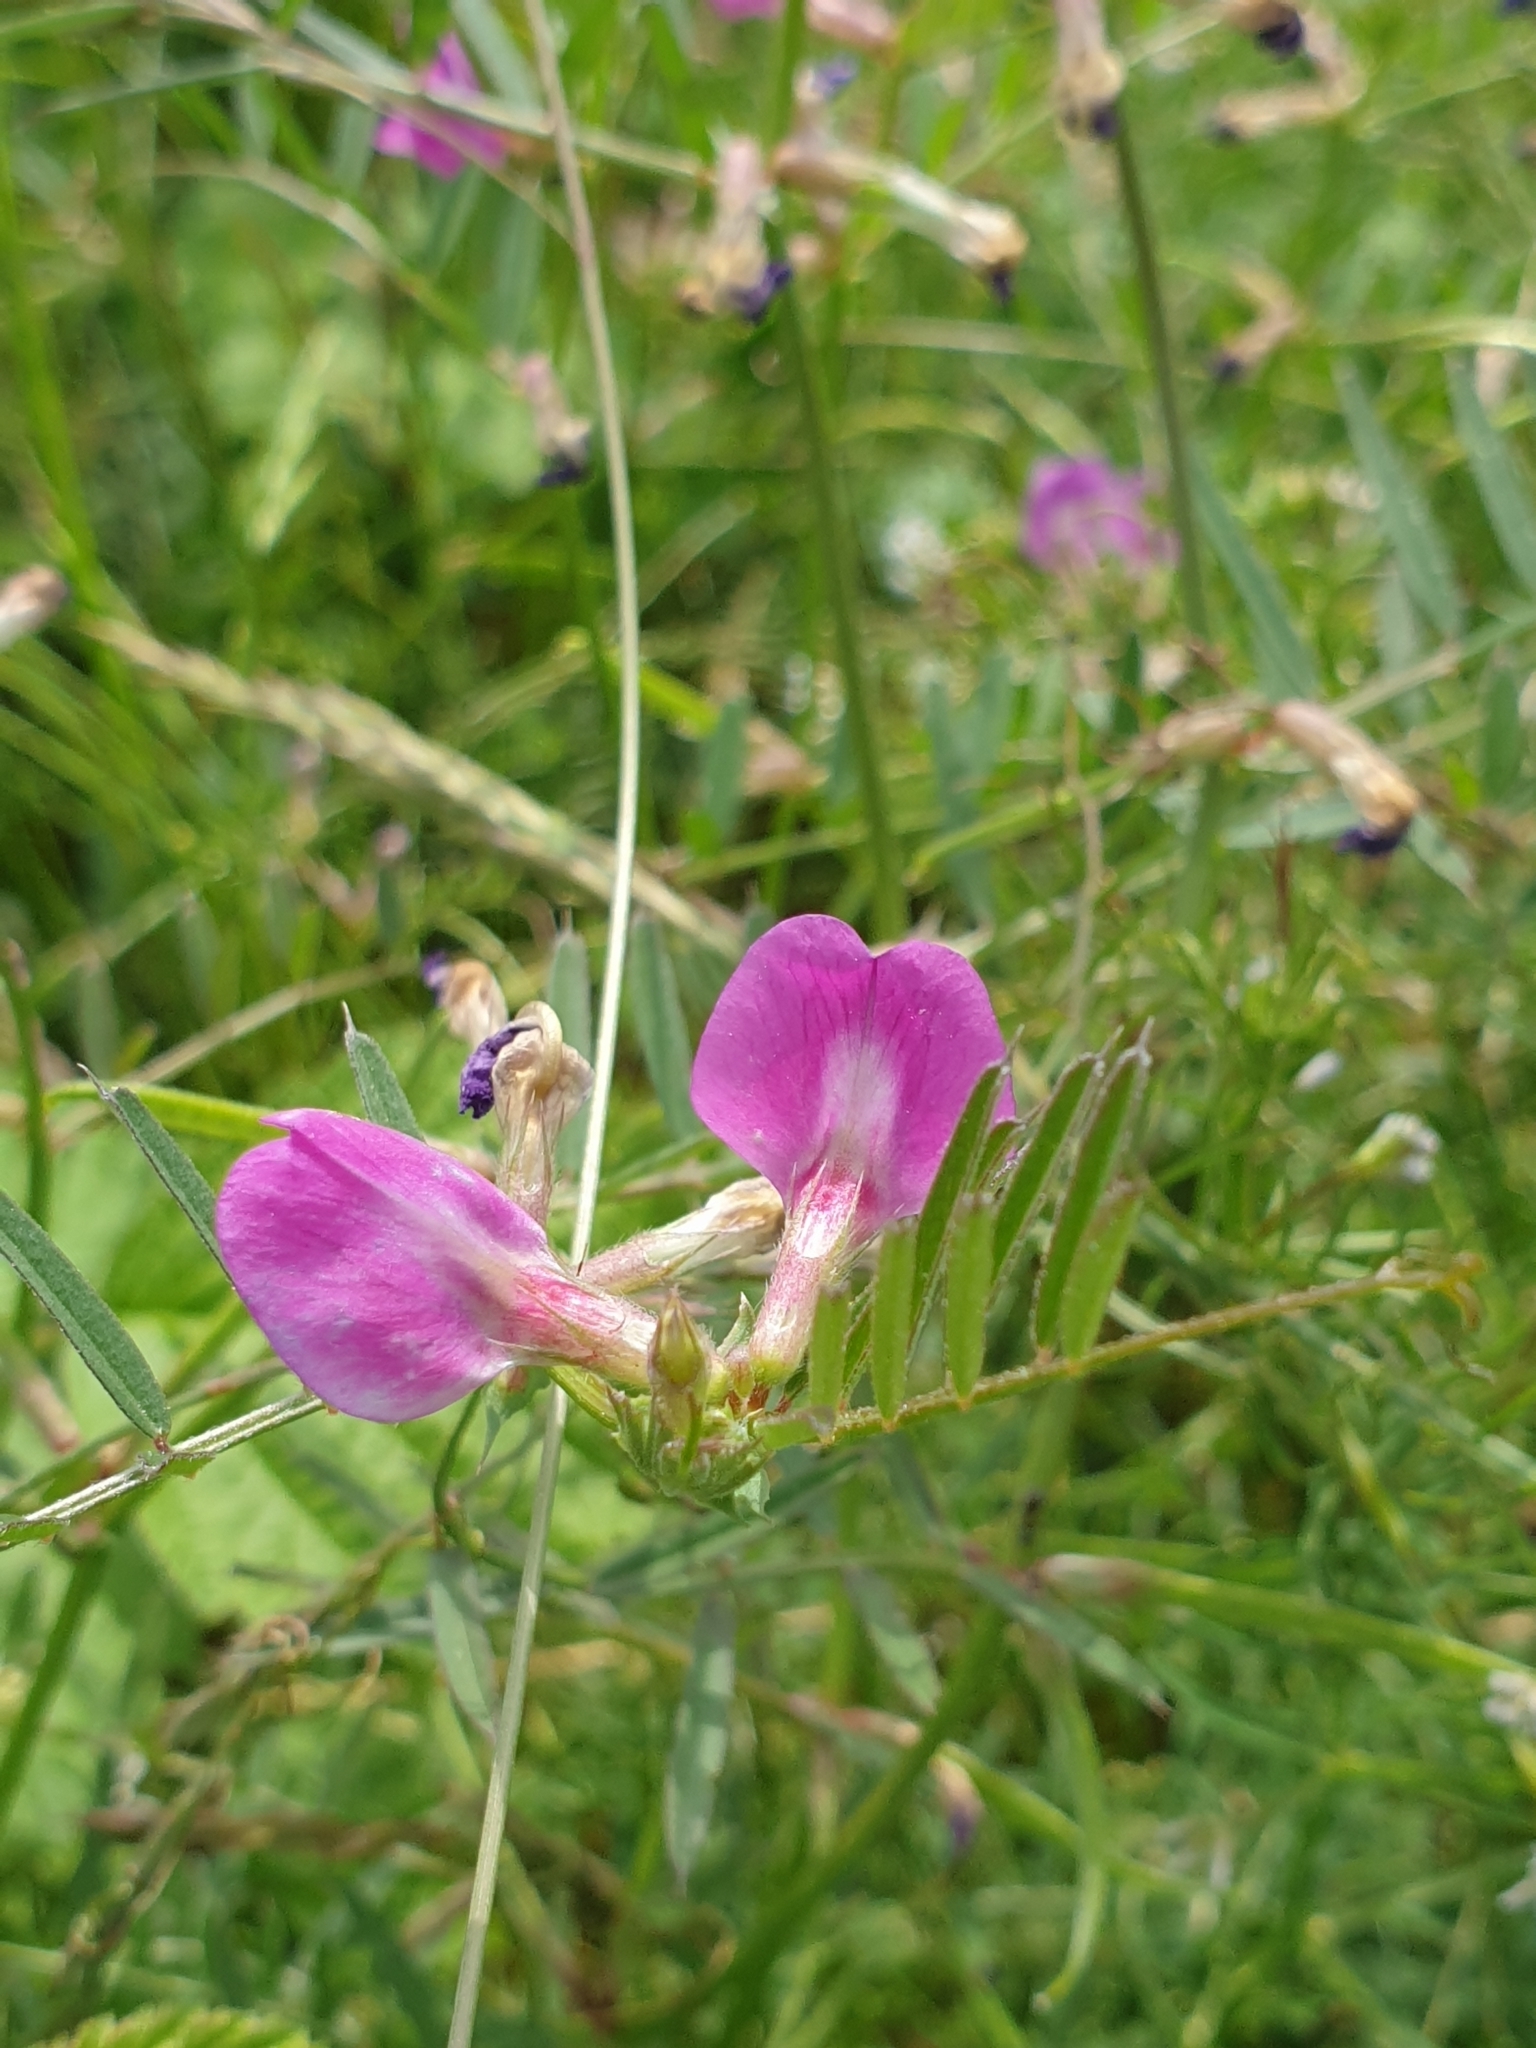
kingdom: Plantae
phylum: Tracheophyta
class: Magnoliopsida
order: Fabales
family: Fabaceae
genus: Vicia
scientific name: Vicia sativa
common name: Garden vetch
